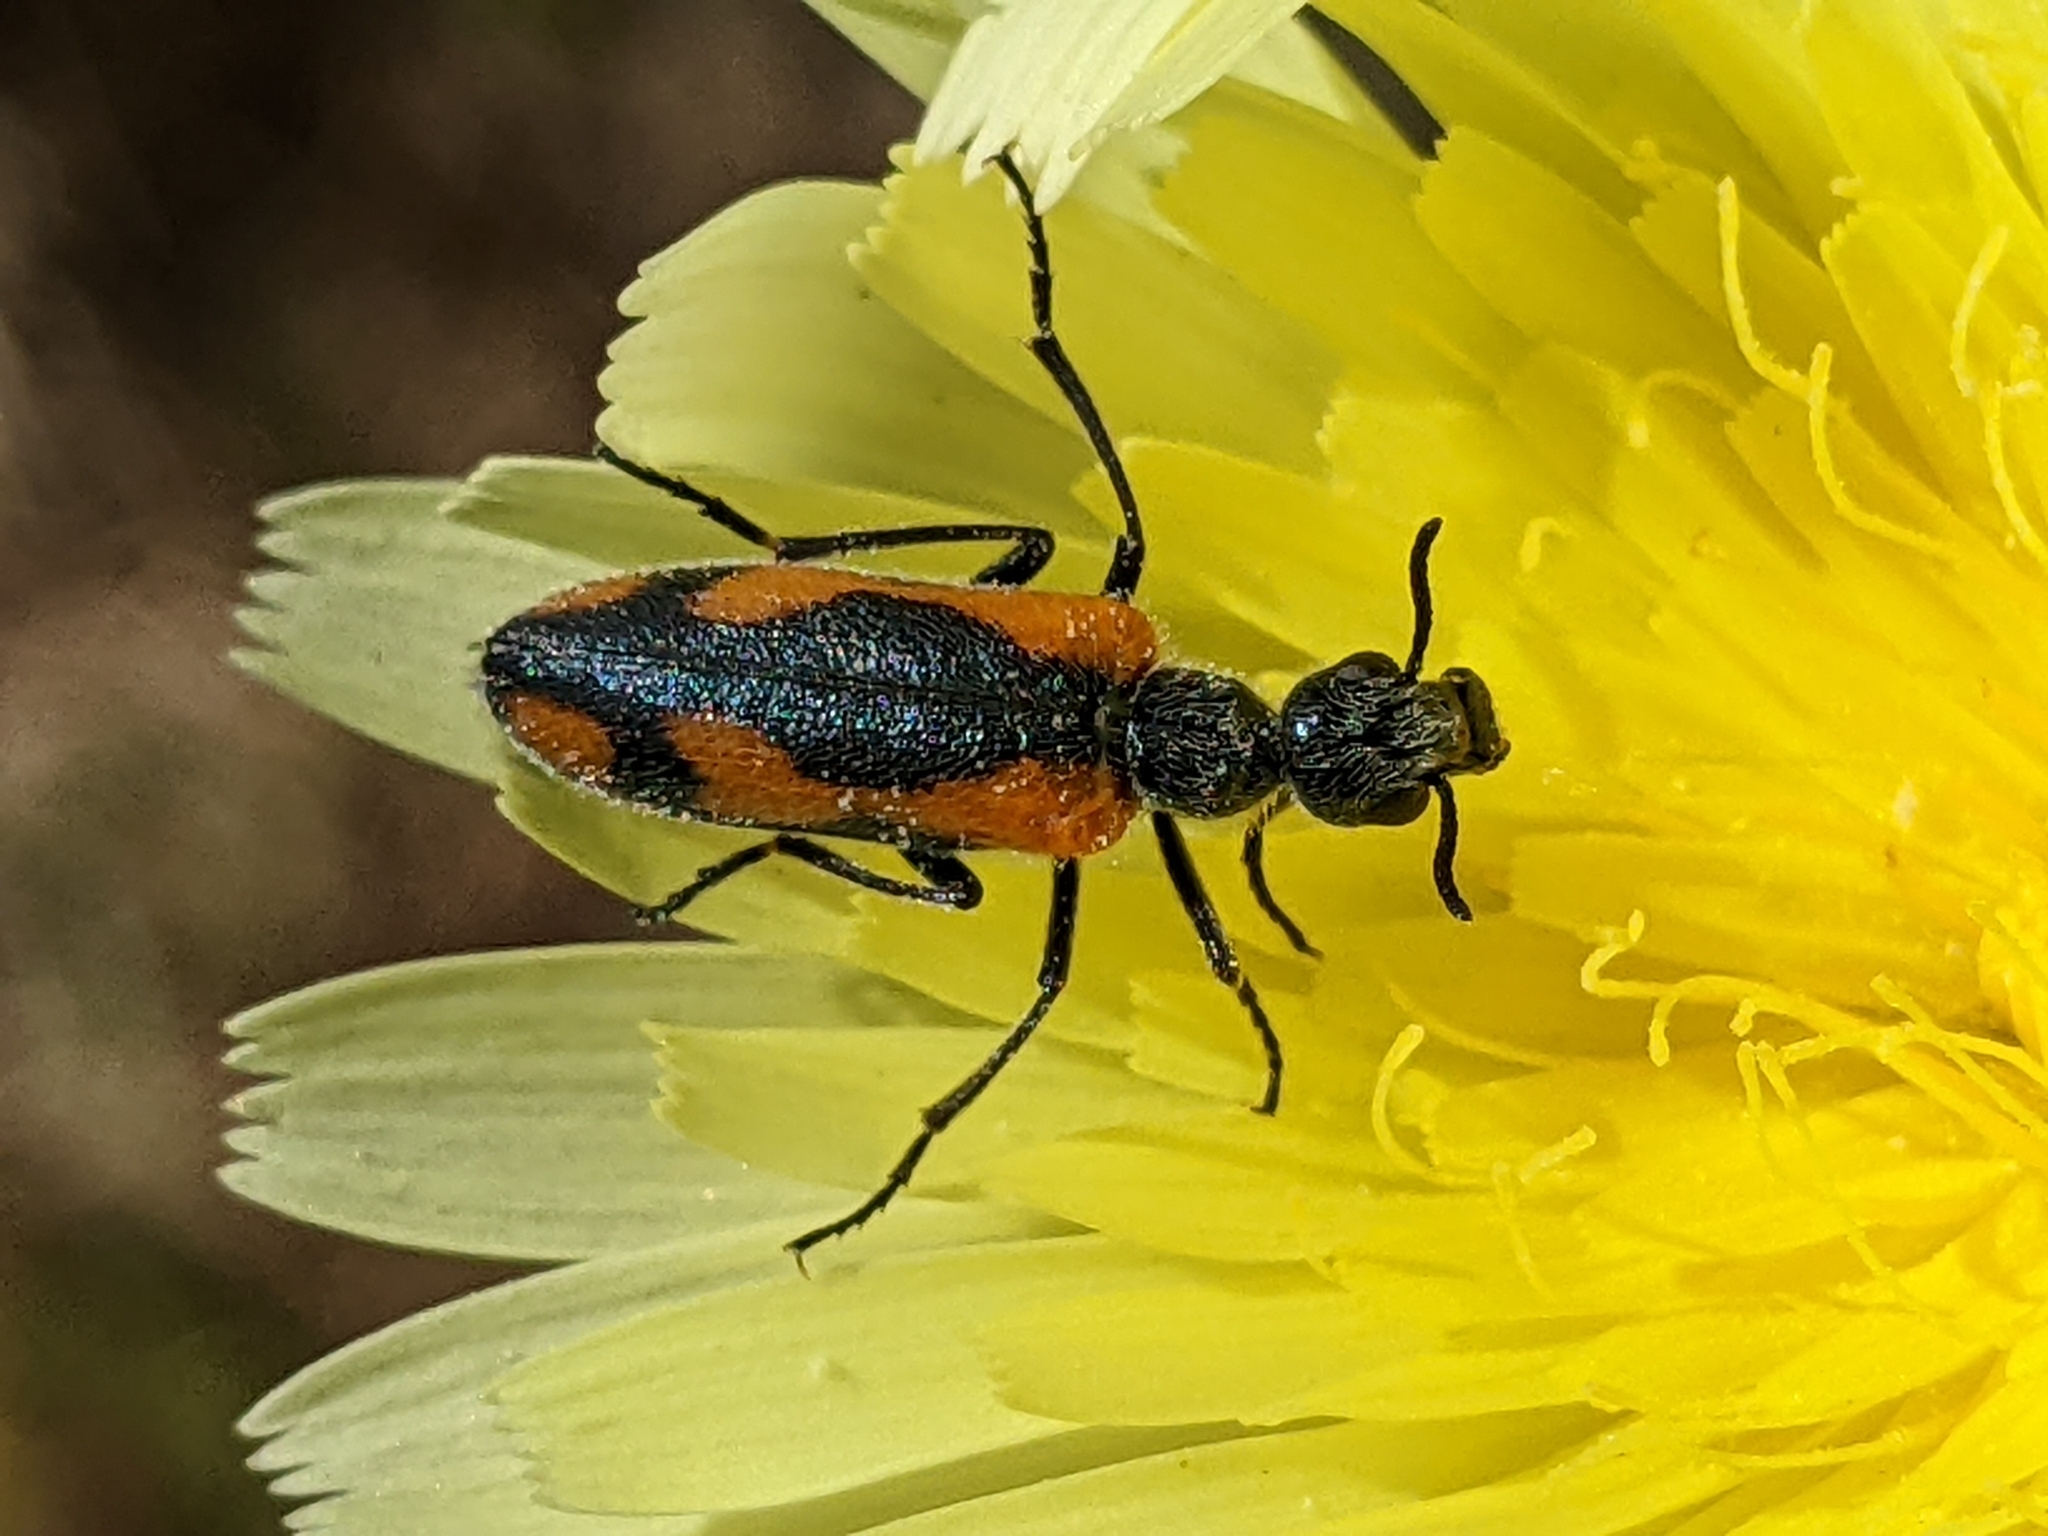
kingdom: Animalia
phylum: Arthropoda
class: Insecta
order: Coleoptera
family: Meloidae
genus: Eupompha
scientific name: Eupompha elegans
